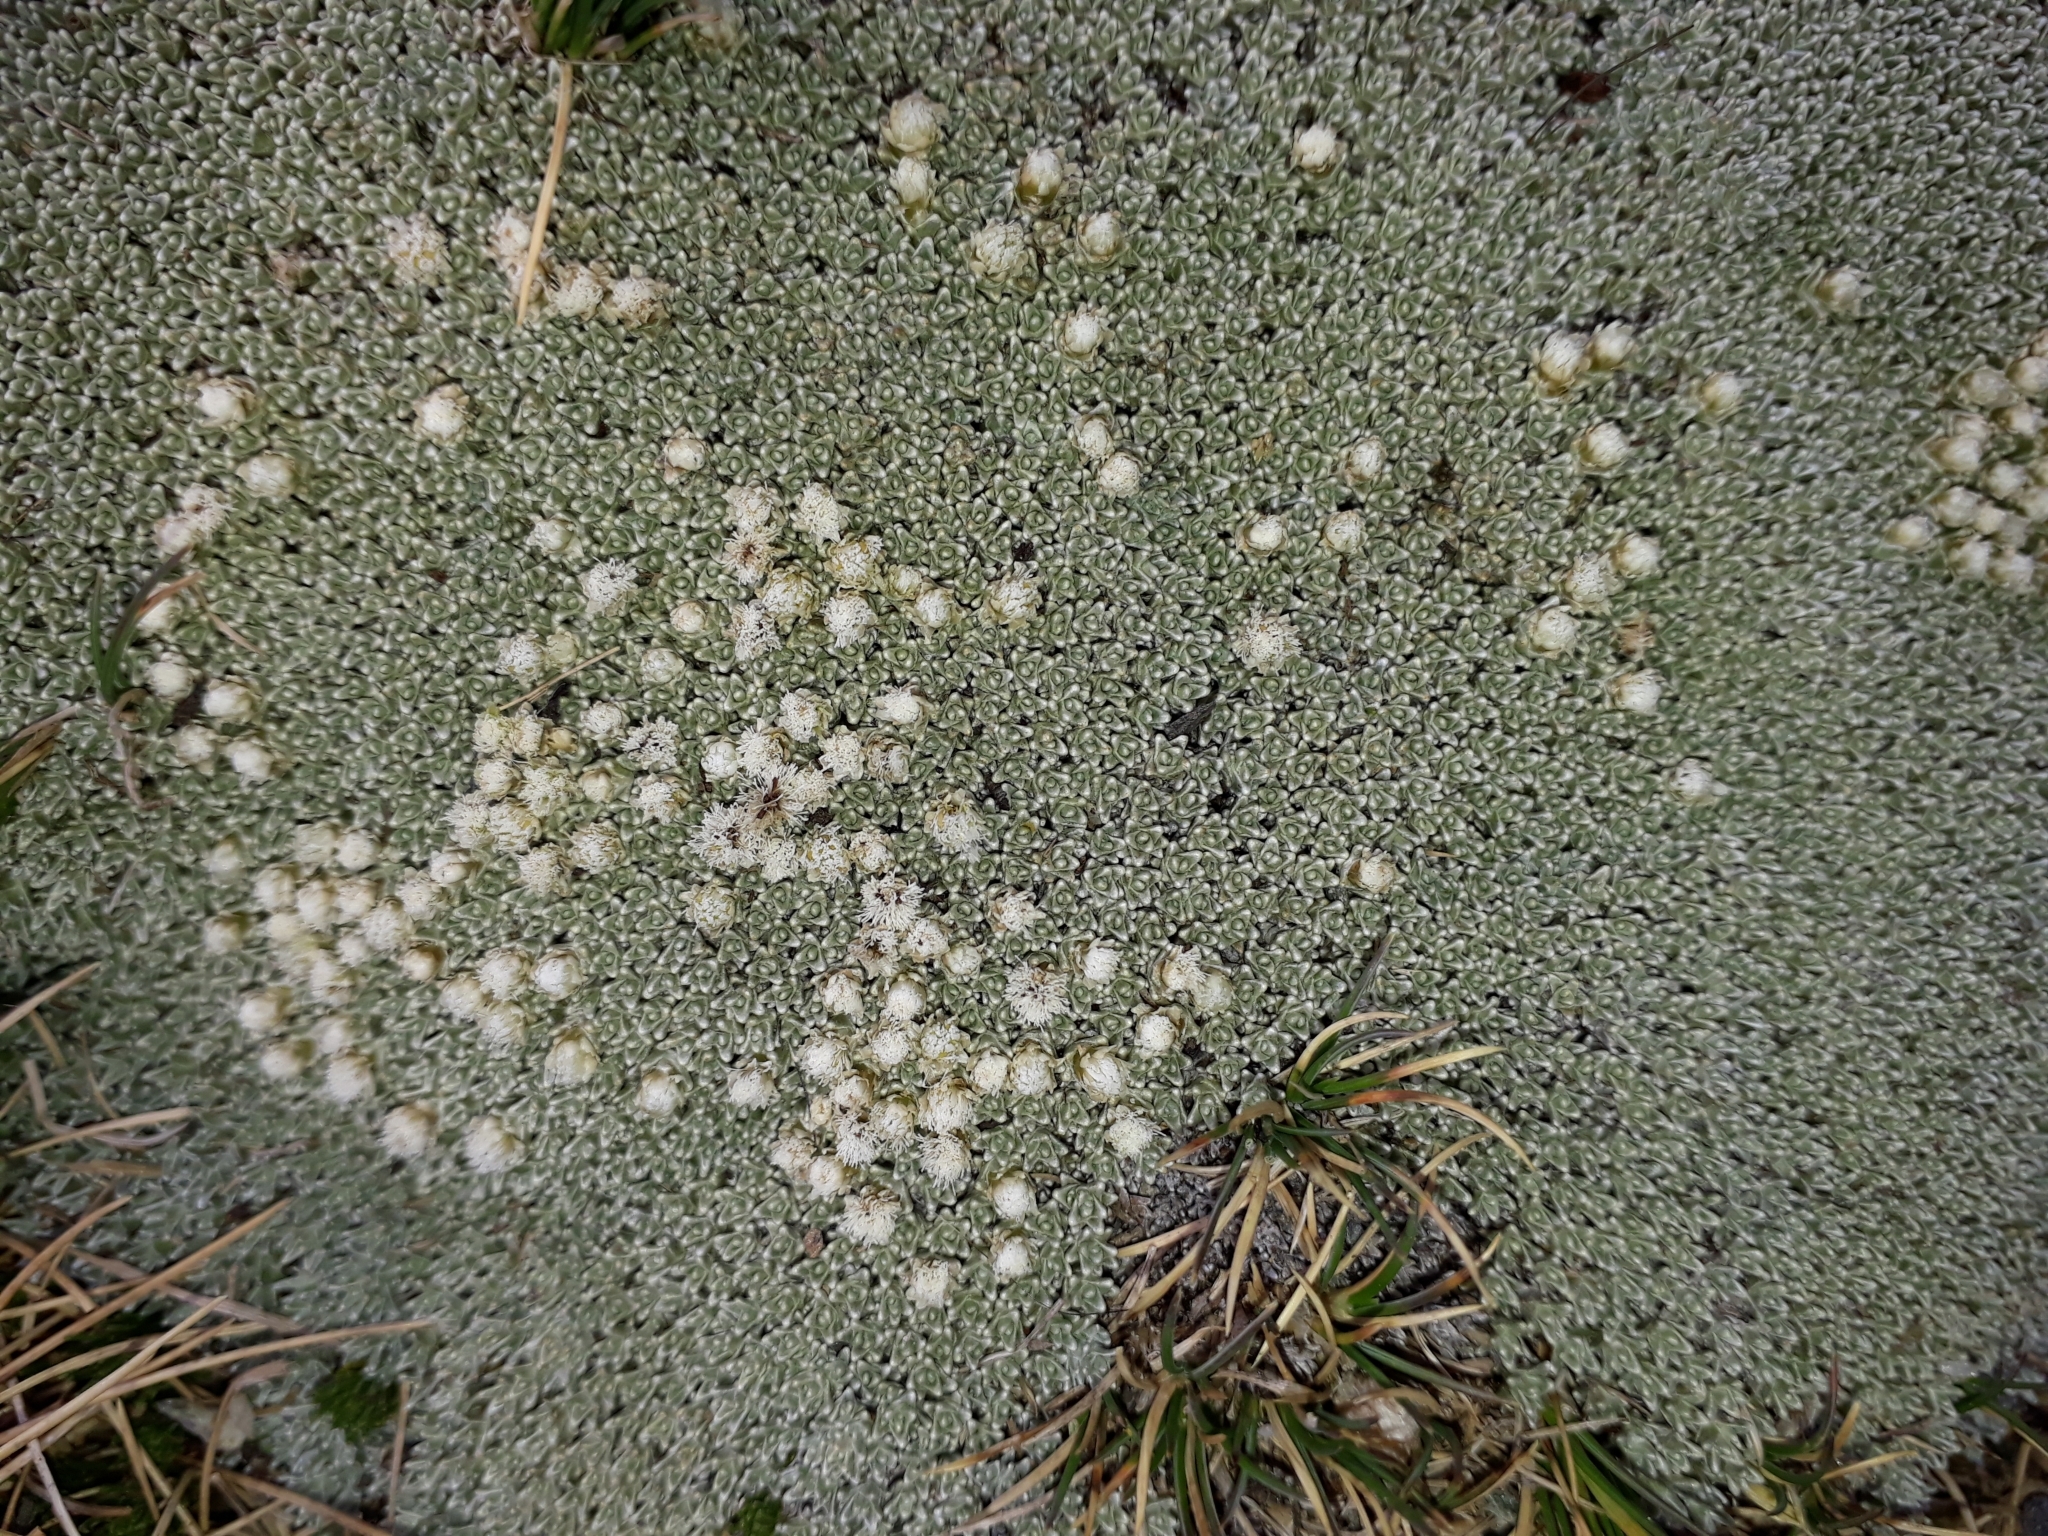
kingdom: Plantae
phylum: Tracheophyta
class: Magnoliopsida
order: Asterales
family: Asteraceae
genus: Raoulia
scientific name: Raoulia hectorii
